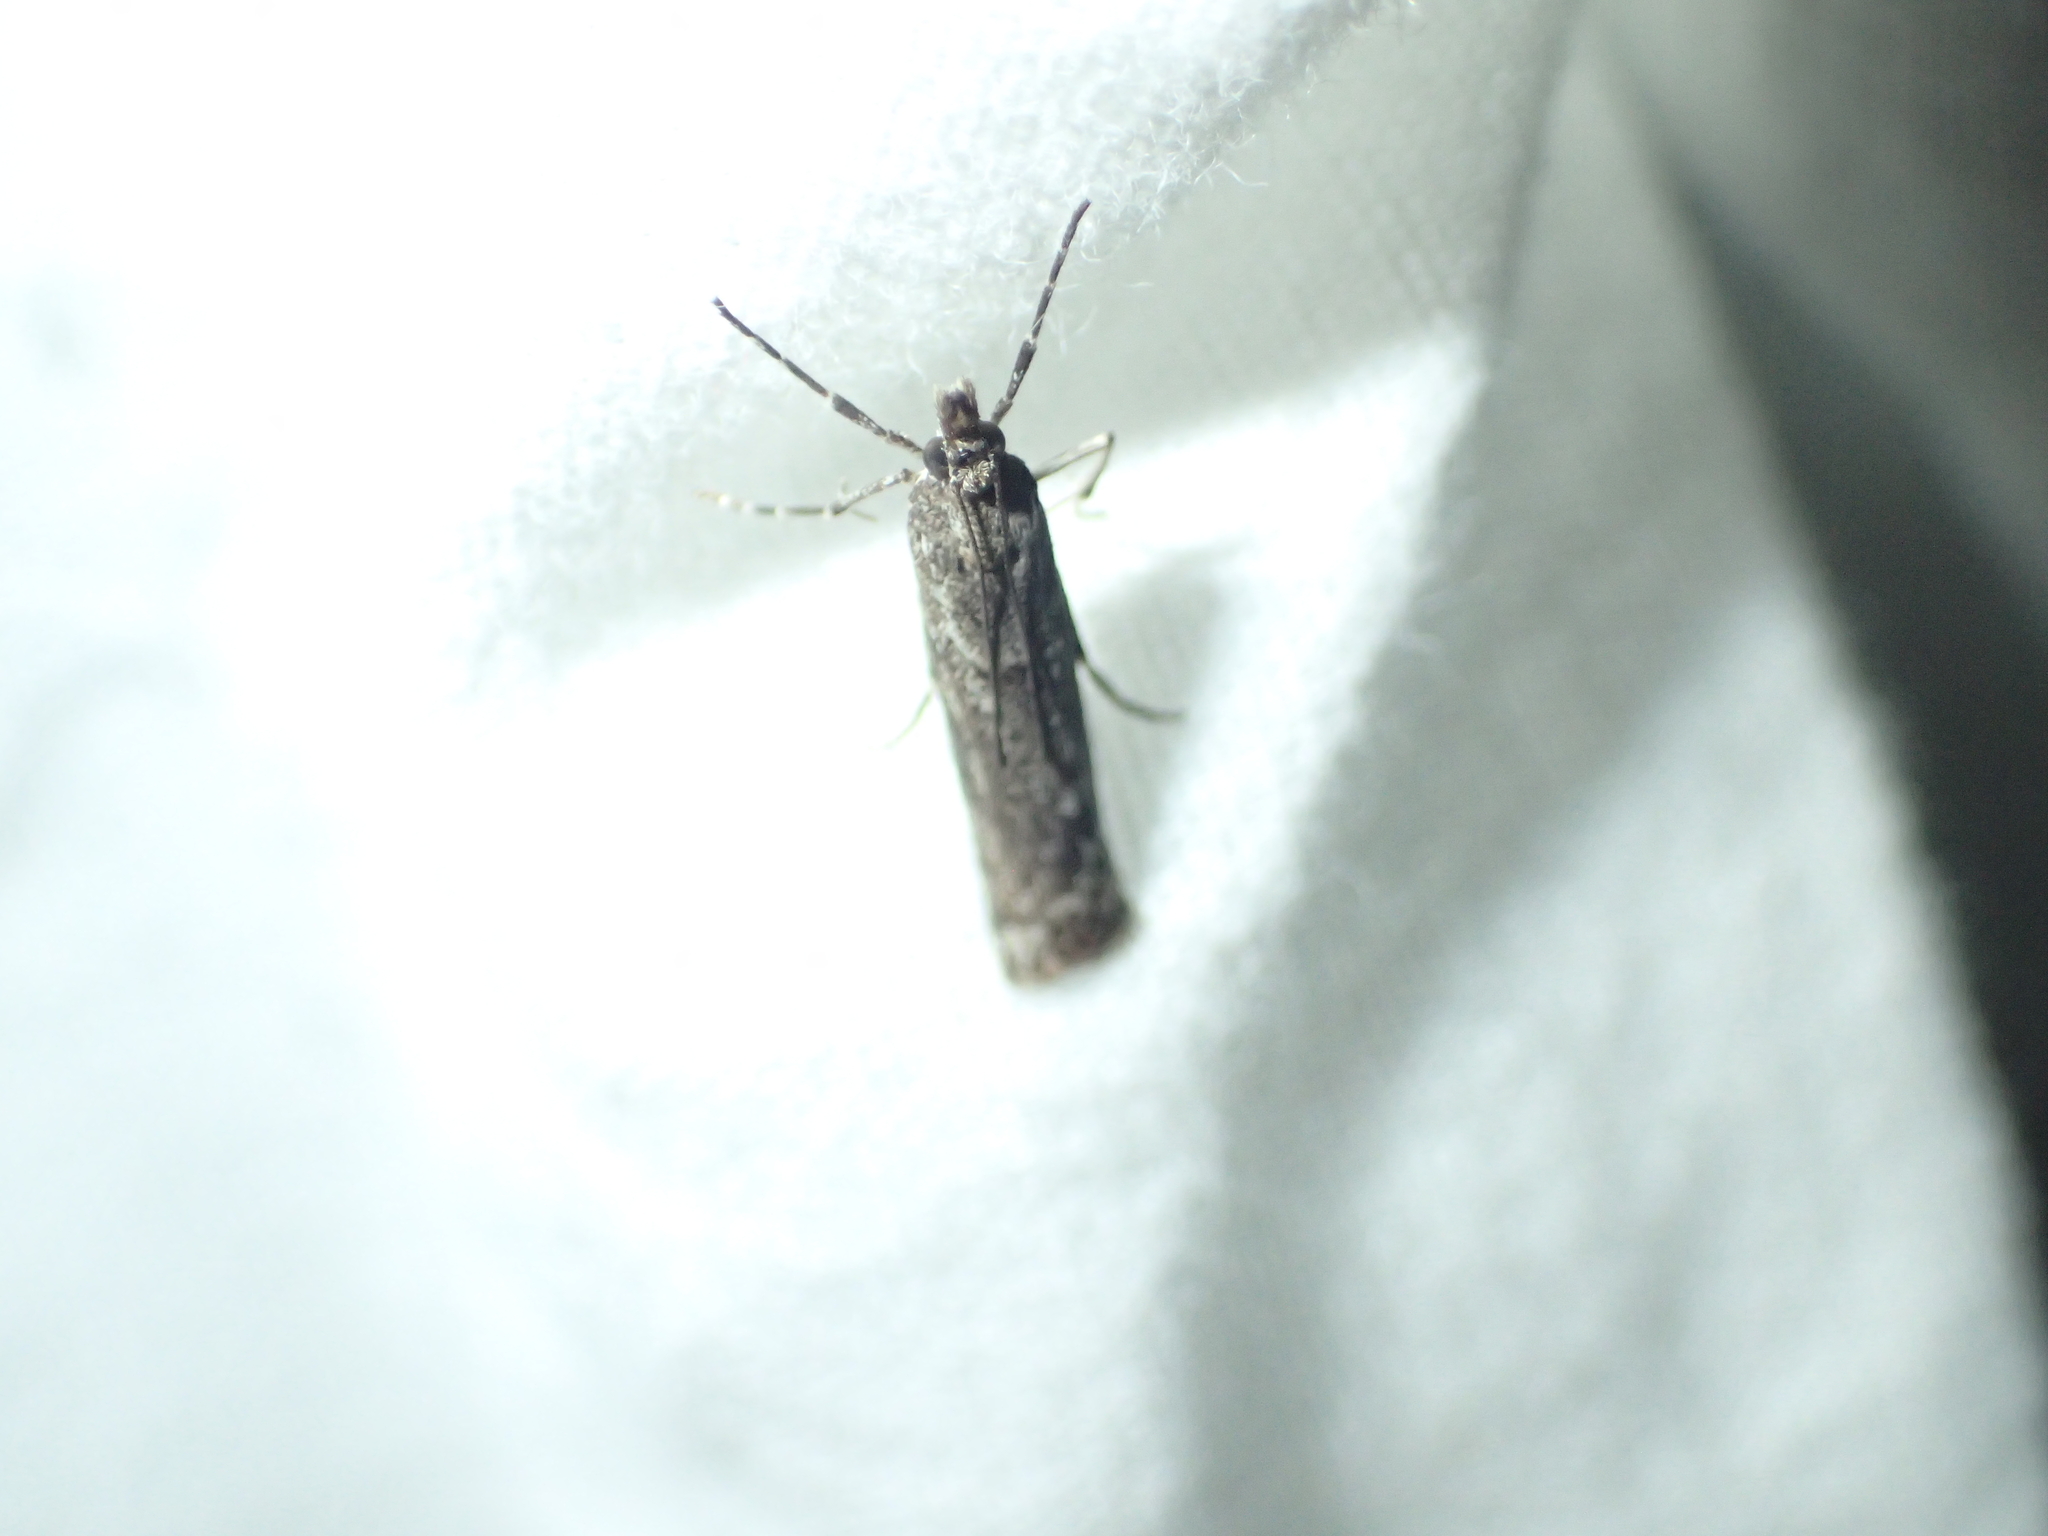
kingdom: Animalia
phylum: Arthropoda
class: Insecta
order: Lepidoptera
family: Crambidae
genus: Eudonia
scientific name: Eudonia leptalea
